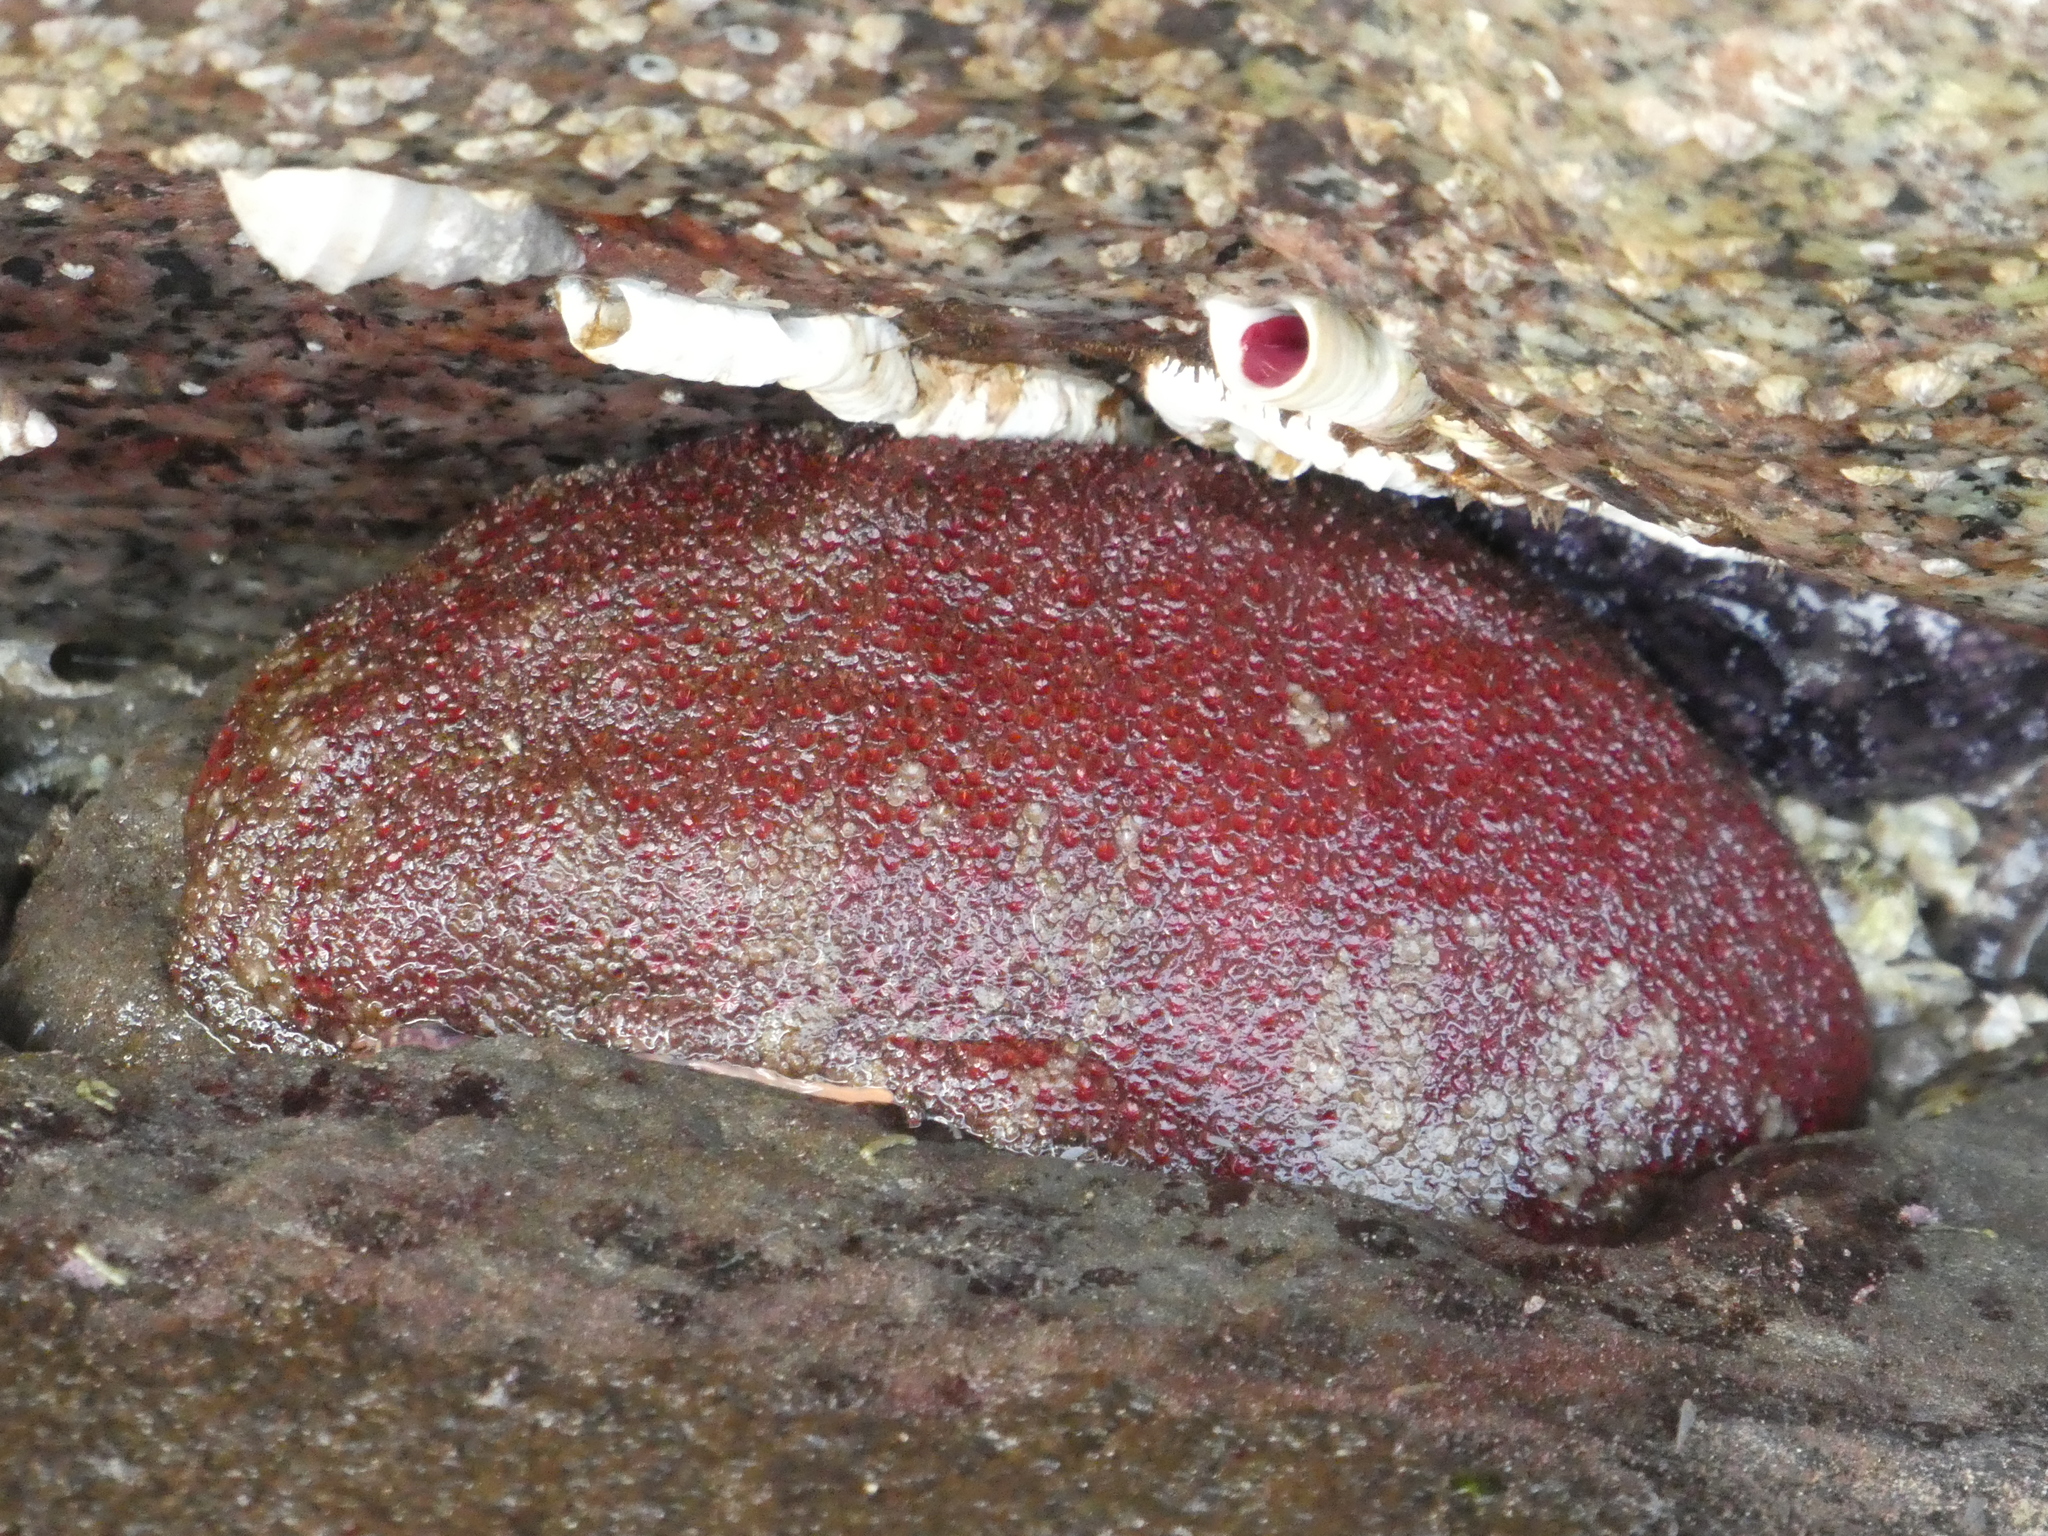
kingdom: Animalia
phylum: Mollusca
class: Polyplacophora
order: Chitonida
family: Acanthochitonidae
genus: Cryptochiton
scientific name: Cryptochiton stelleri
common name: Giant pacific chiton
